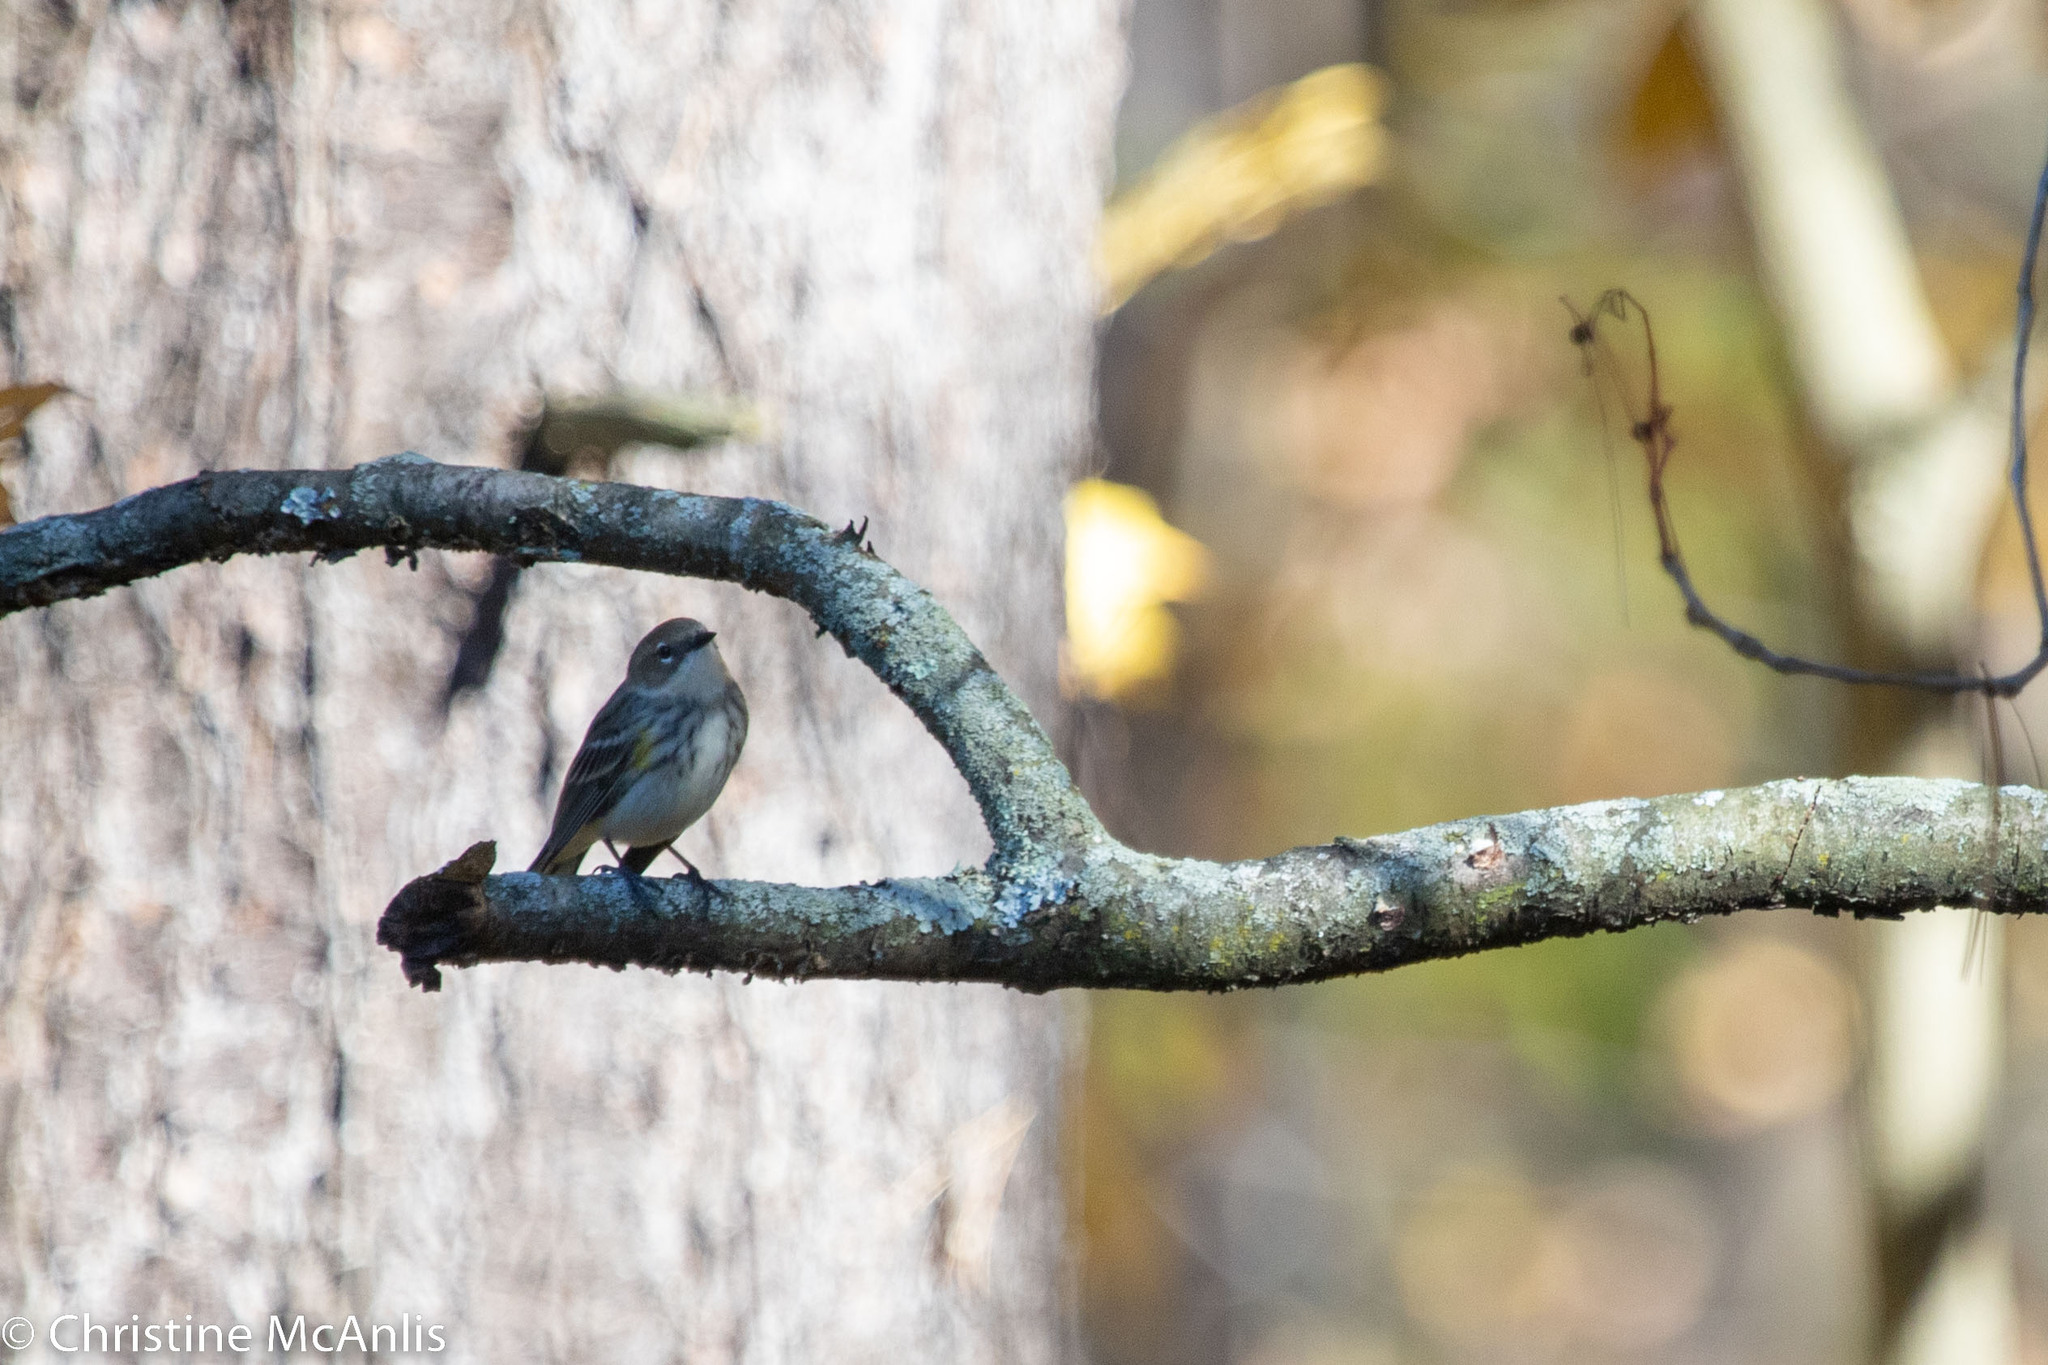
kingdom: Animalia
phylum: Chordata
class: Aves
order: Passeriformes
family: Parulidae
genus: Setophaga
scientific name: Setophaga coronata
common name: Myrtle warbler
